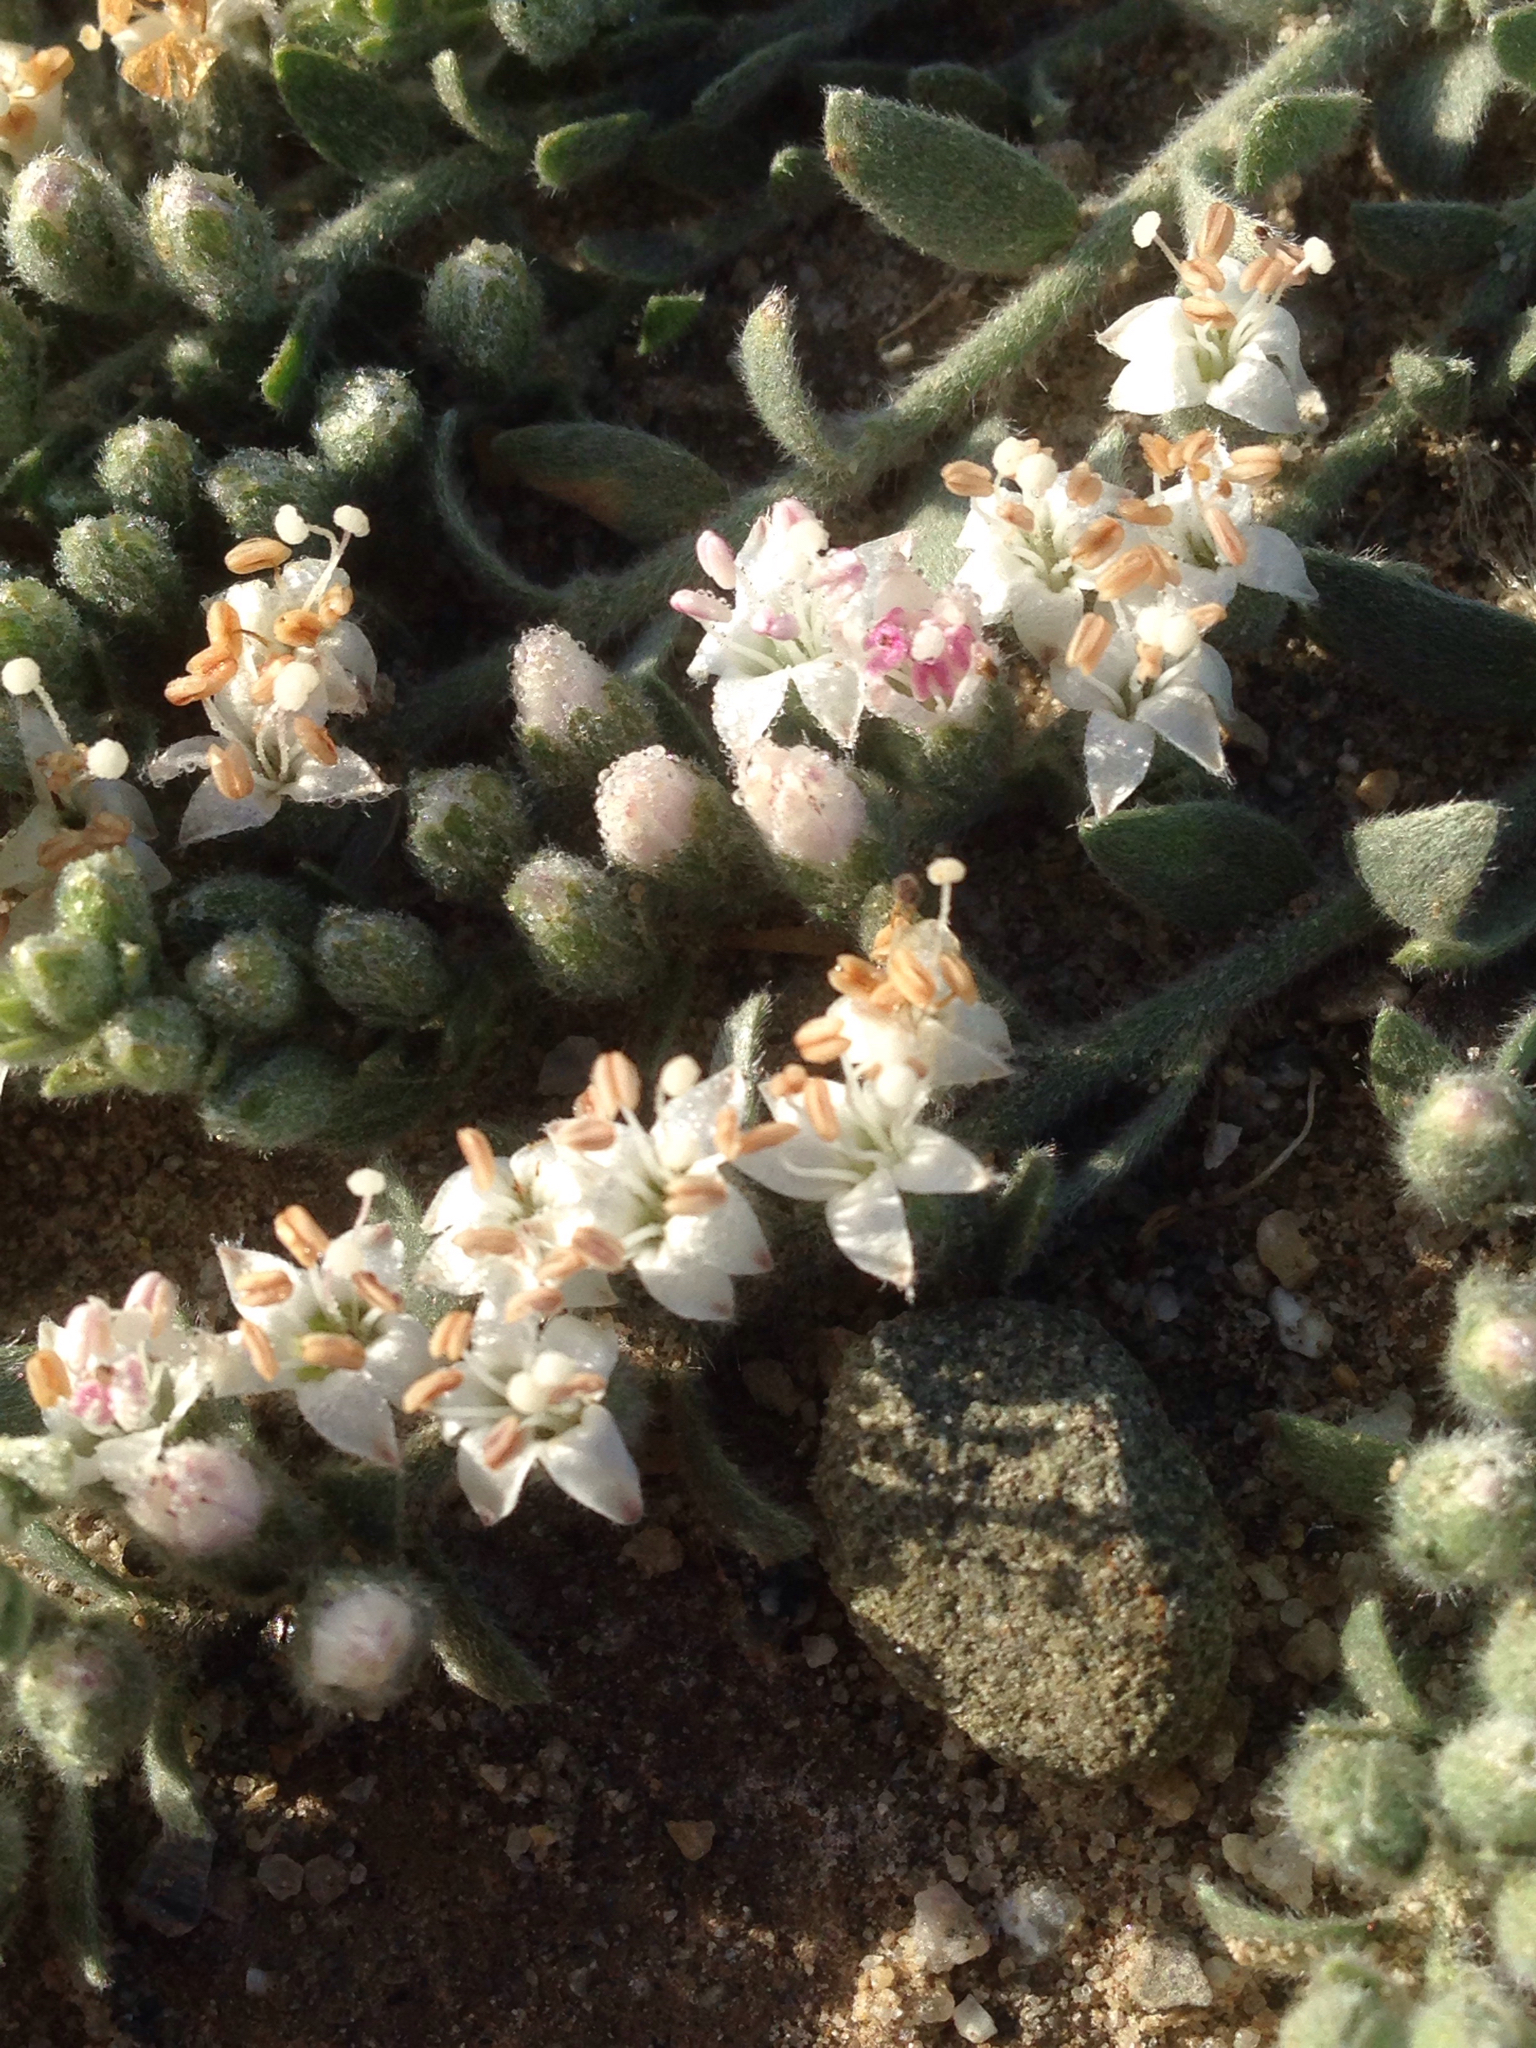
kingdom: Plantae
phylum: Tracheophyta
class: Magnoliopsida
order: Solanales
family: Convolvulaceae
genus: Cressa
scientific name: Cressa truxillensis
